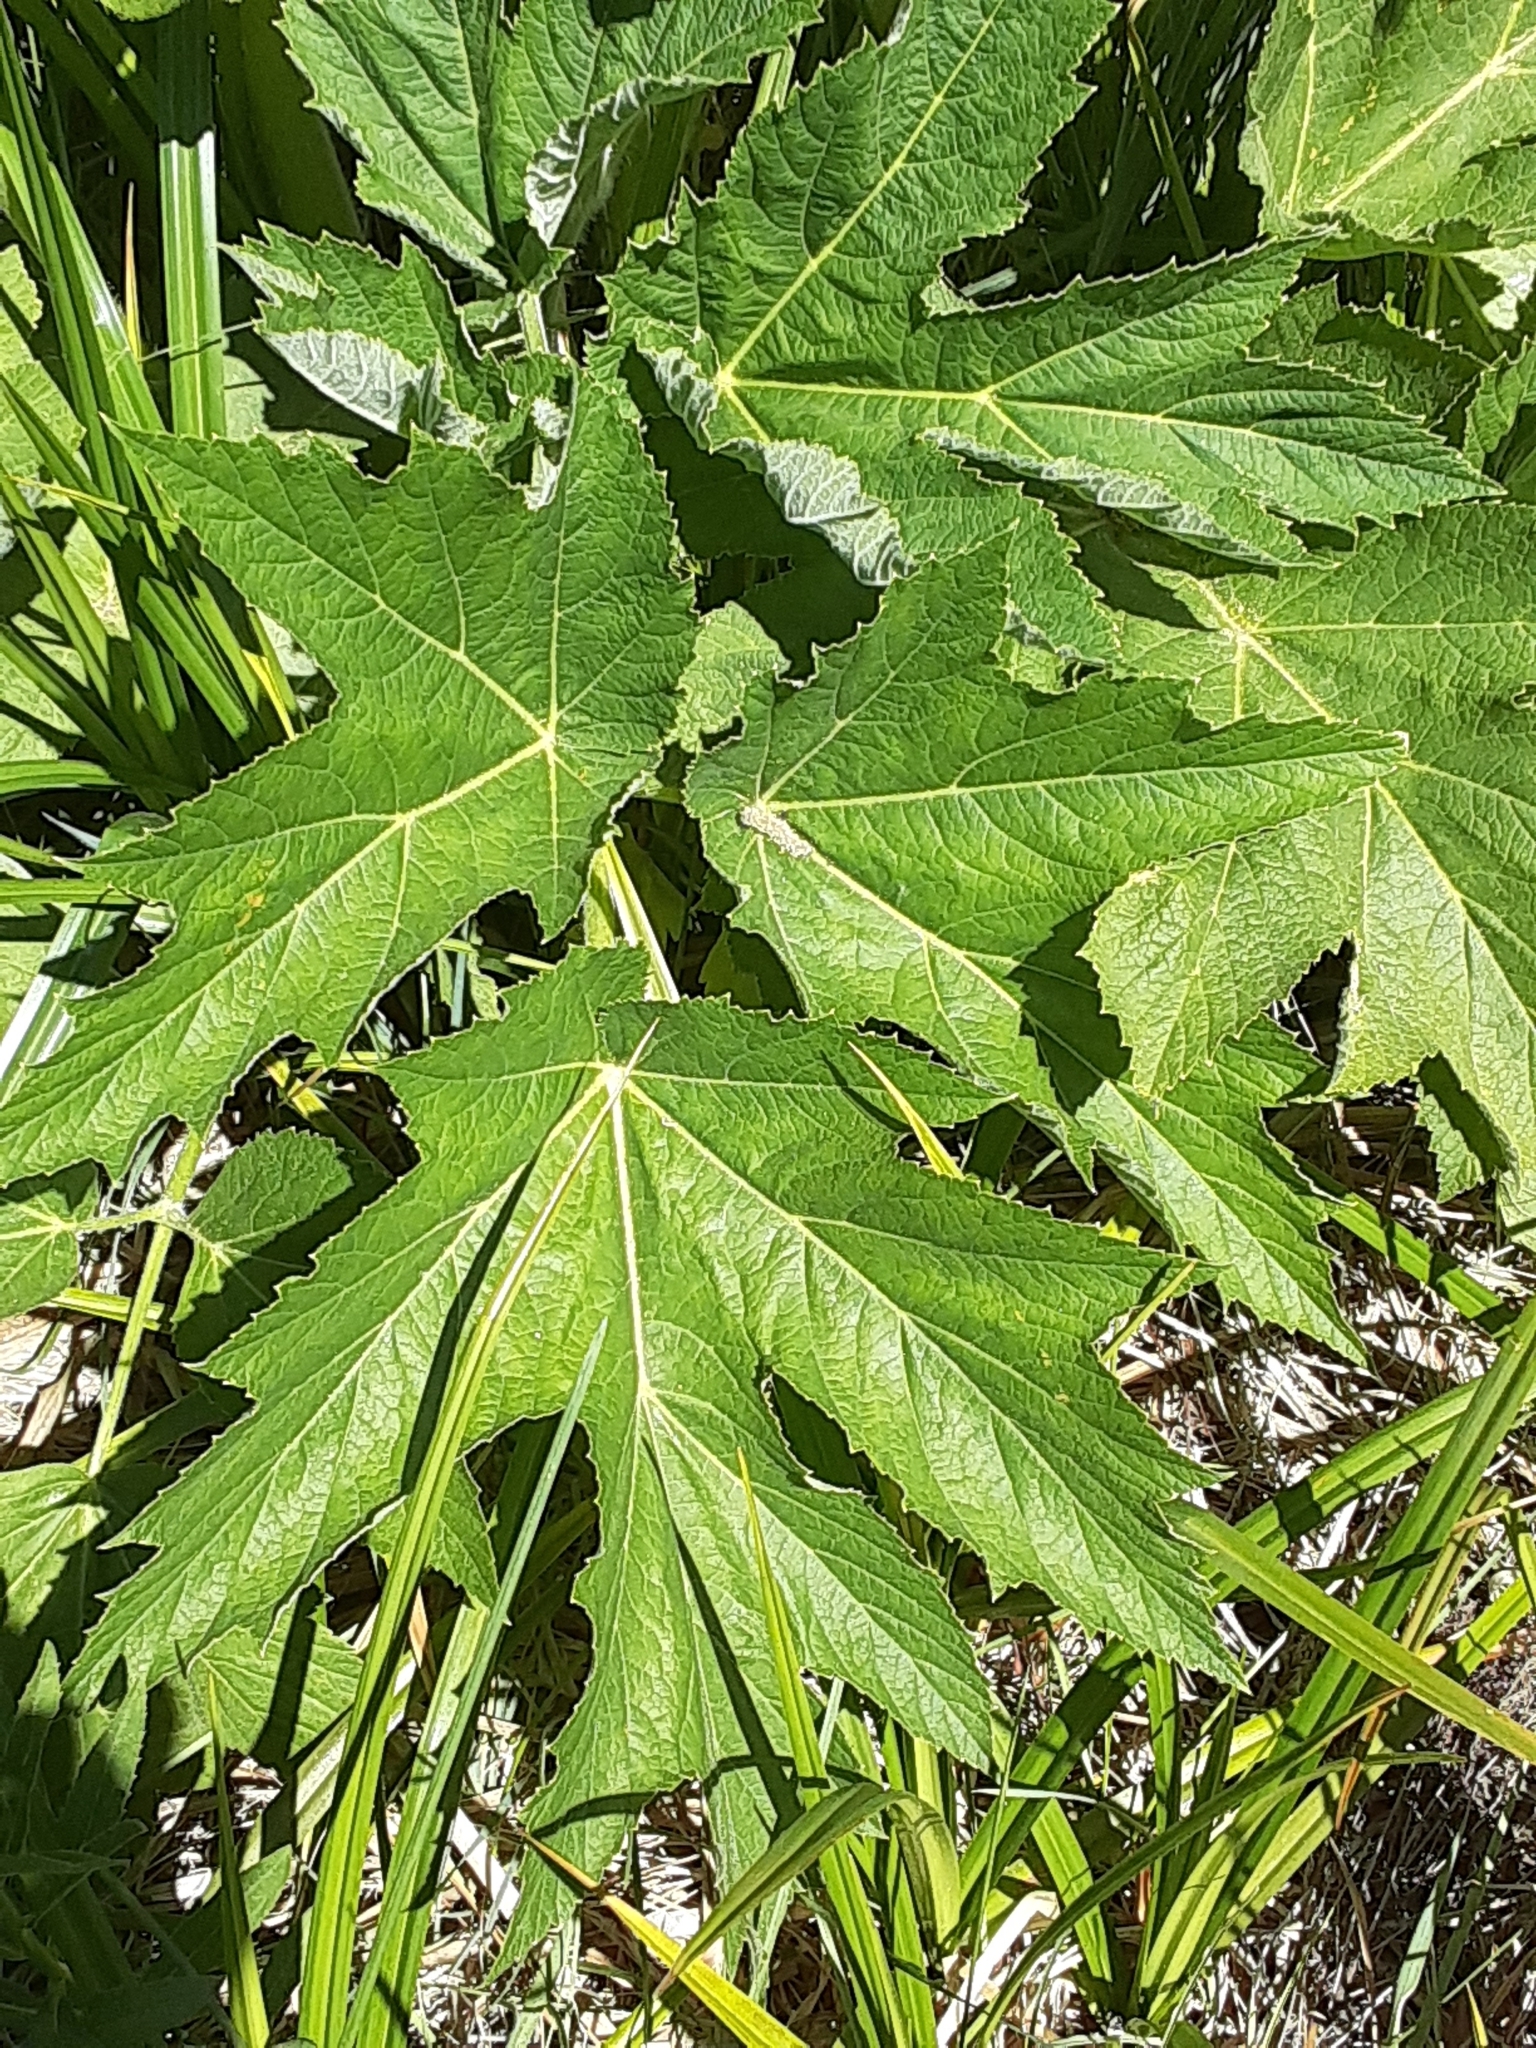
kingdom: Plantae
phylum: Tracheophyta
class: Magnoliopsida
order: Apiales
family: Apiaceae
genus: Heracleum
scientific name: Heracleum maximum
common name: American cow parsnip
